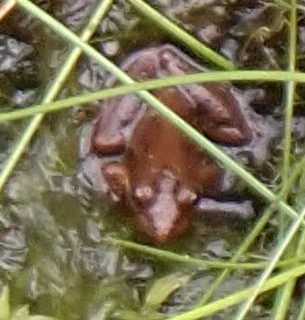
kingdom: Animalia
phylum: Chordata
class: Amphibia
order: Anura
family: Hylidae
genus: Acris
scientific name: Acris gryllus
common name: Southern cricket frog
